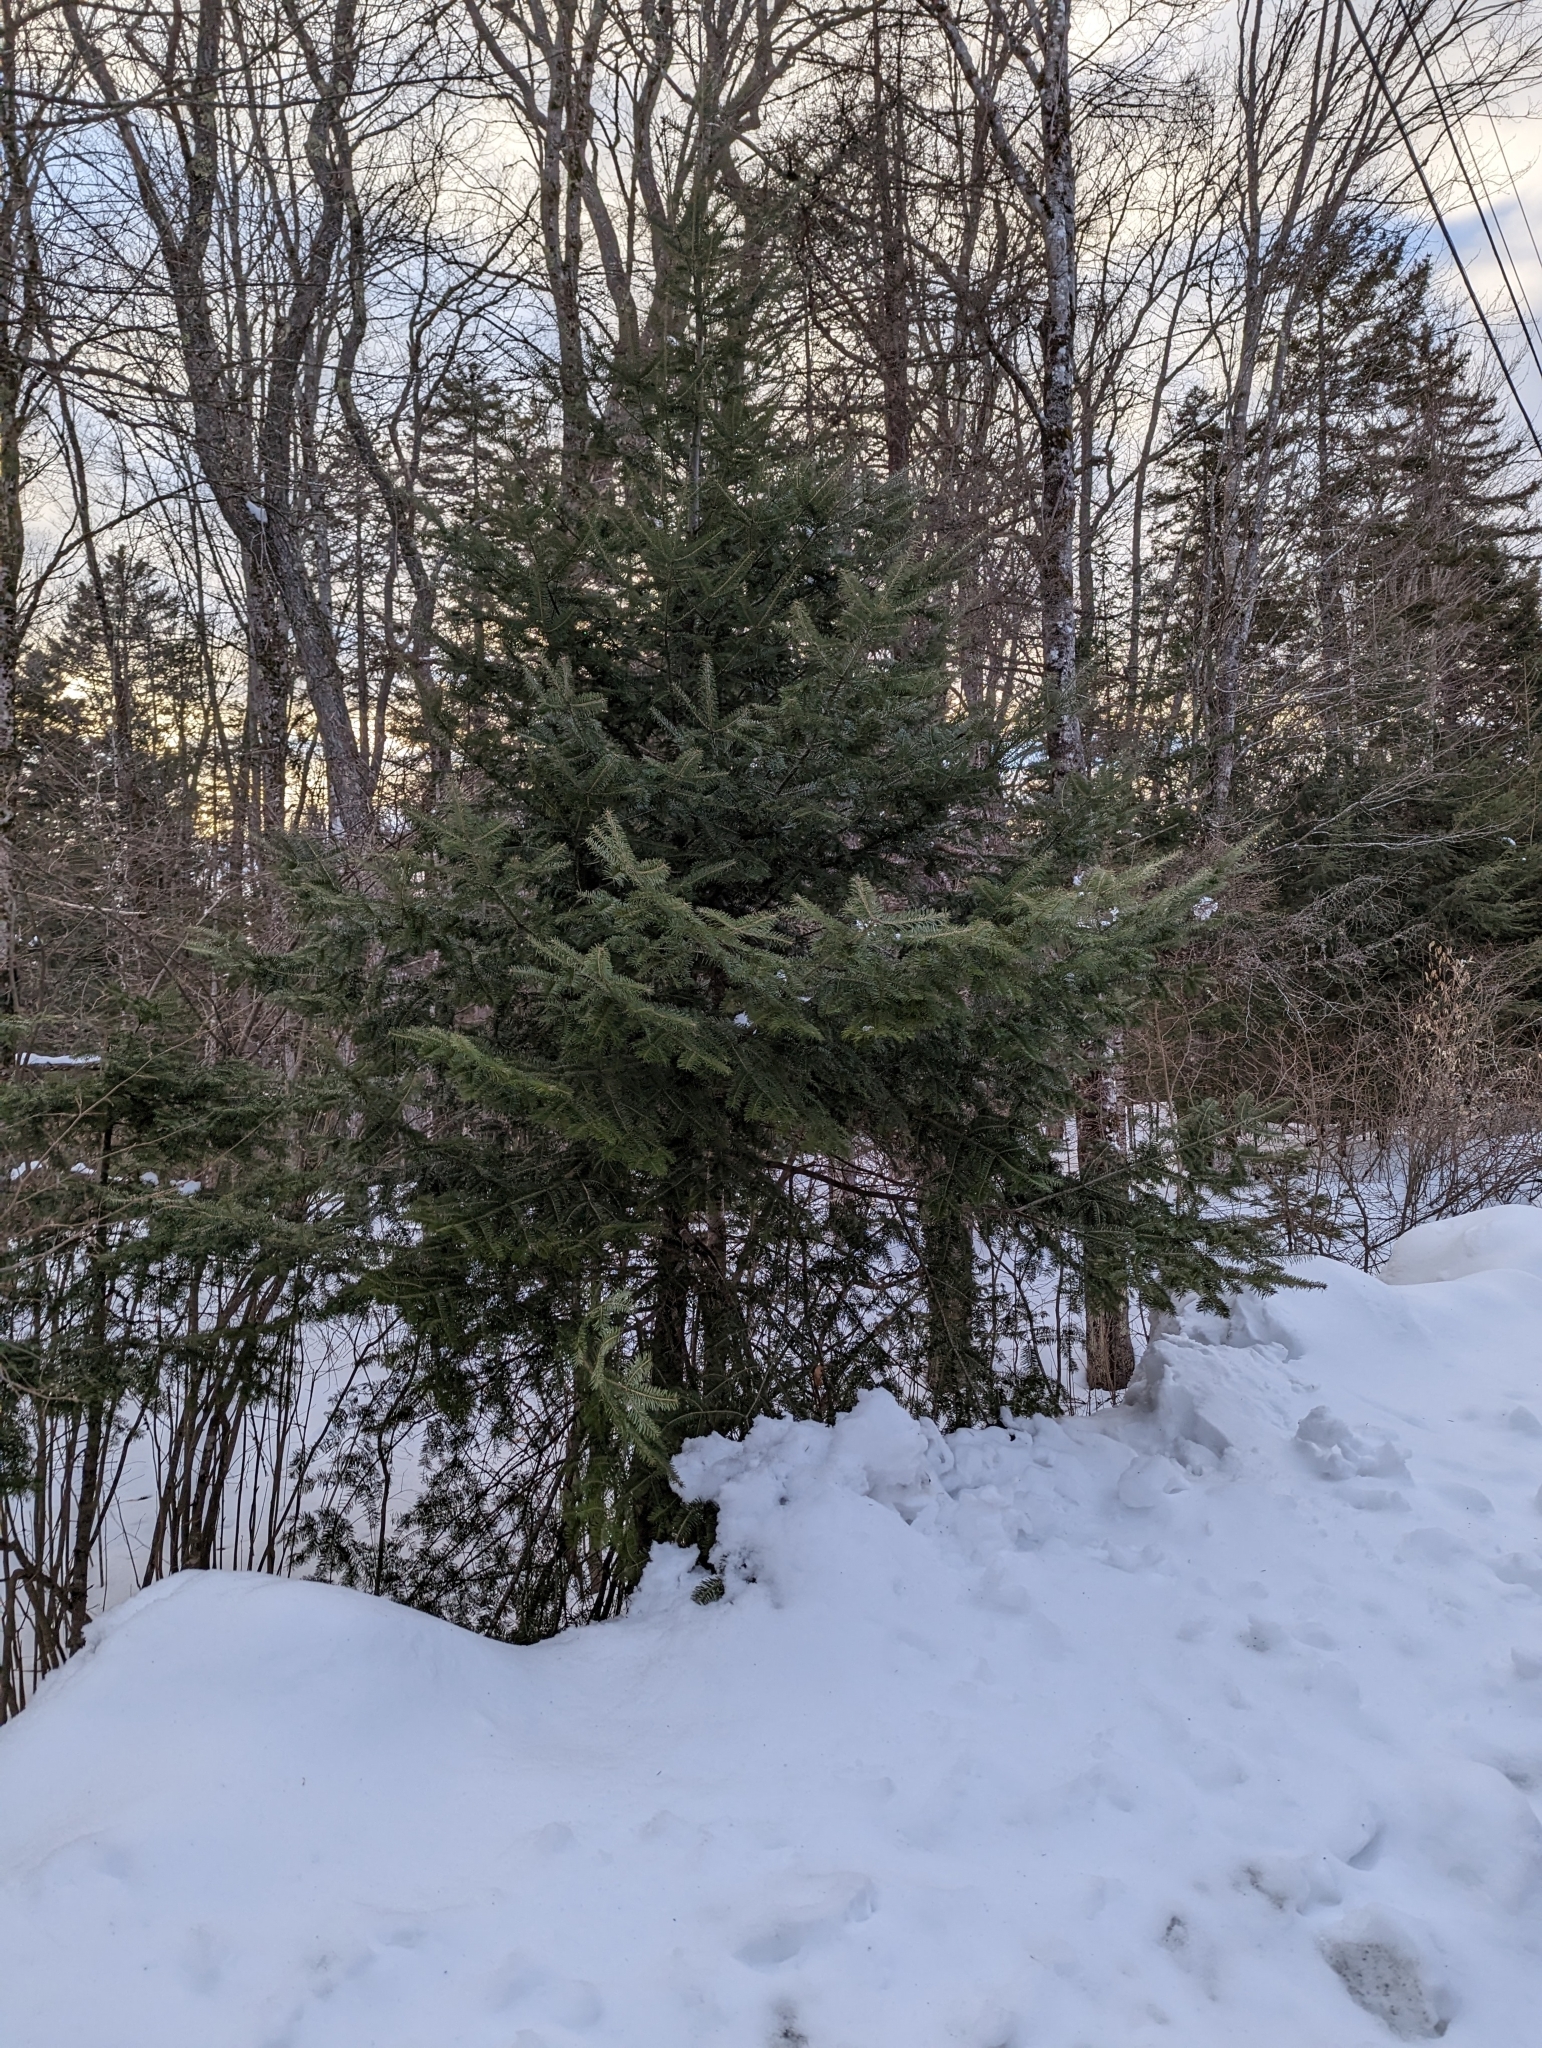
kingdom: Plantae
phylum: Tracheophyta
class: Pinopsida
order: Pinales
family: Pinaceae
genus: Abies
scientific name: Abies balsamea
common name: Balsam fir
